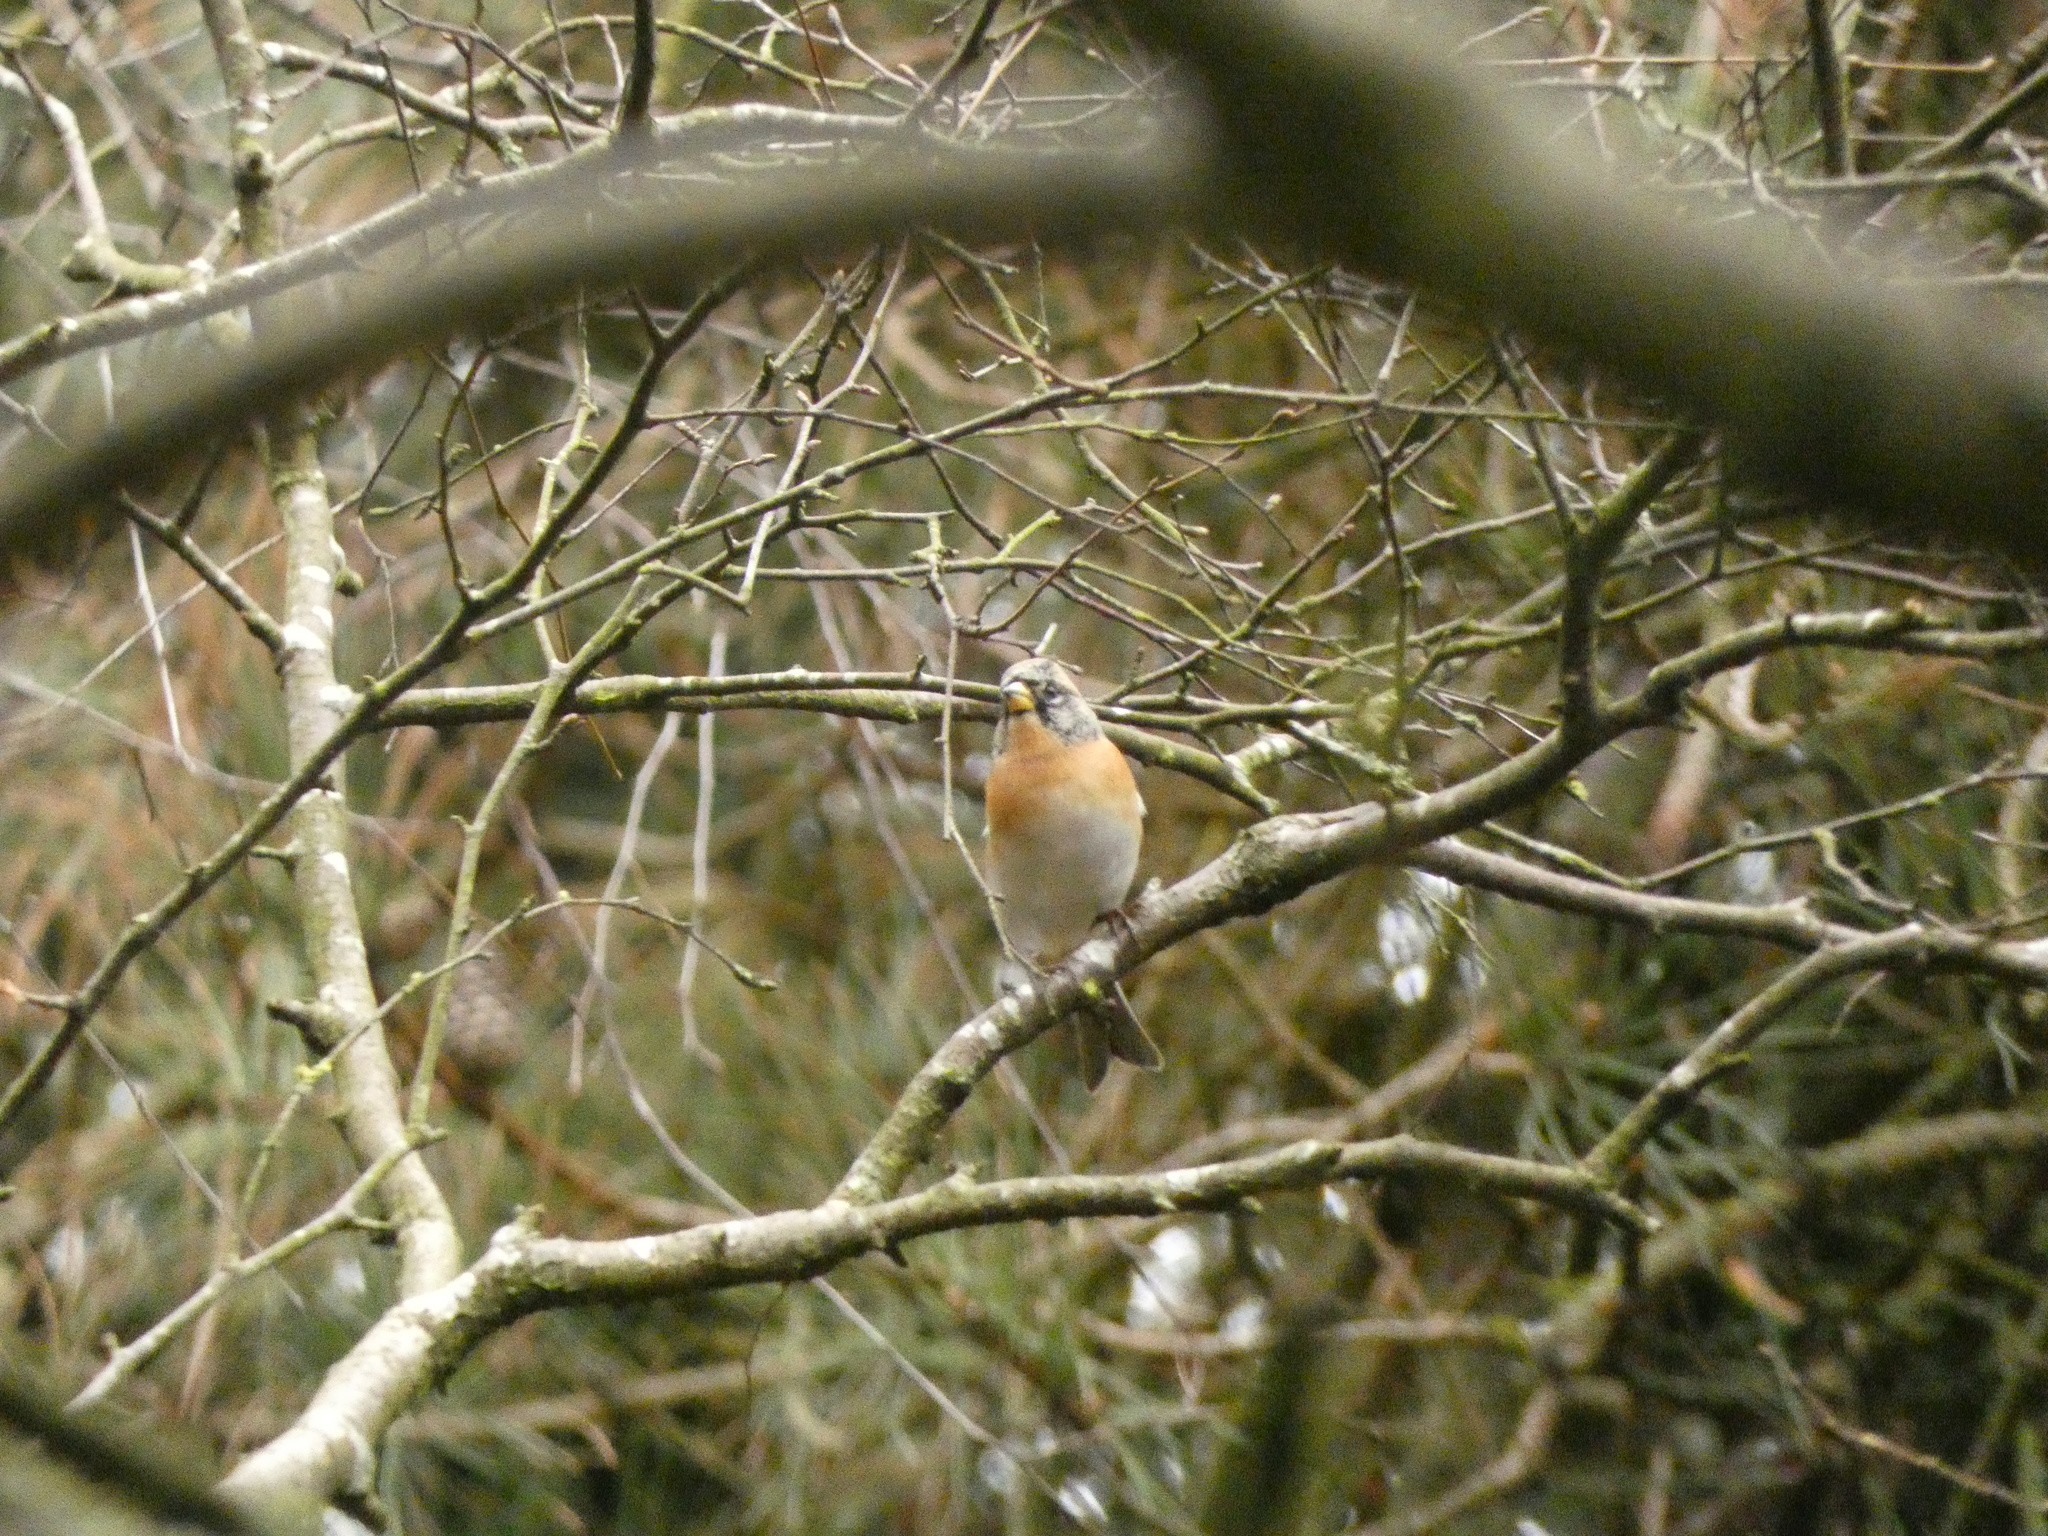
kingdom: Animalia
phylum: Chordata
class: Aves
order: Passeriformes
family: Fringillidae
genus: Fringilla
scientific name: Fringilla montifringilla
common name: Brambling
